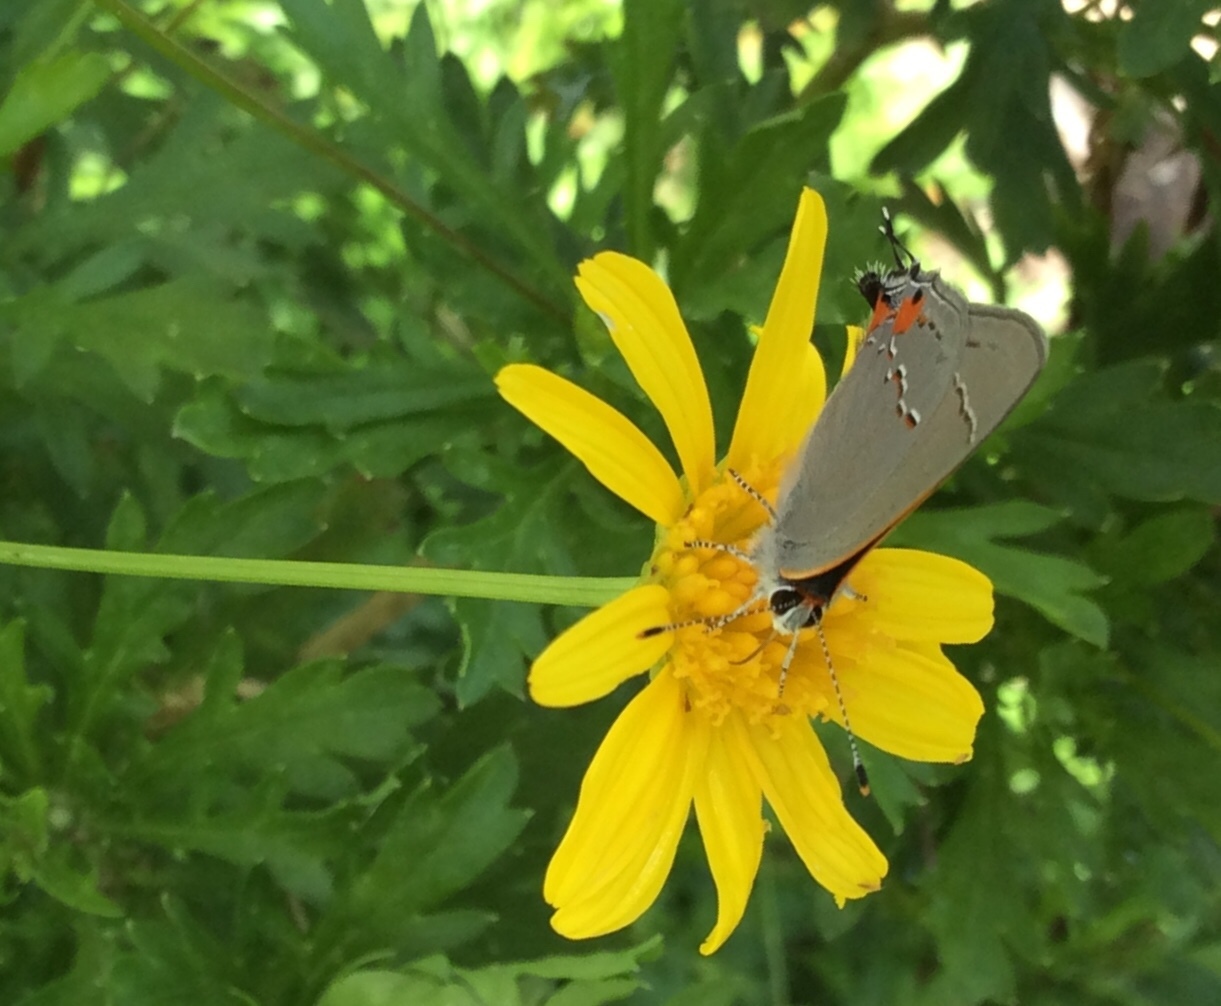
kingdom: Animalia
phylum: Arthropoda
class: Insecta
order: Lepidoptera
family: Lycaenidae
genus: Strymon
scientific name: Strymon melinus
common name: Gray hairstreak
